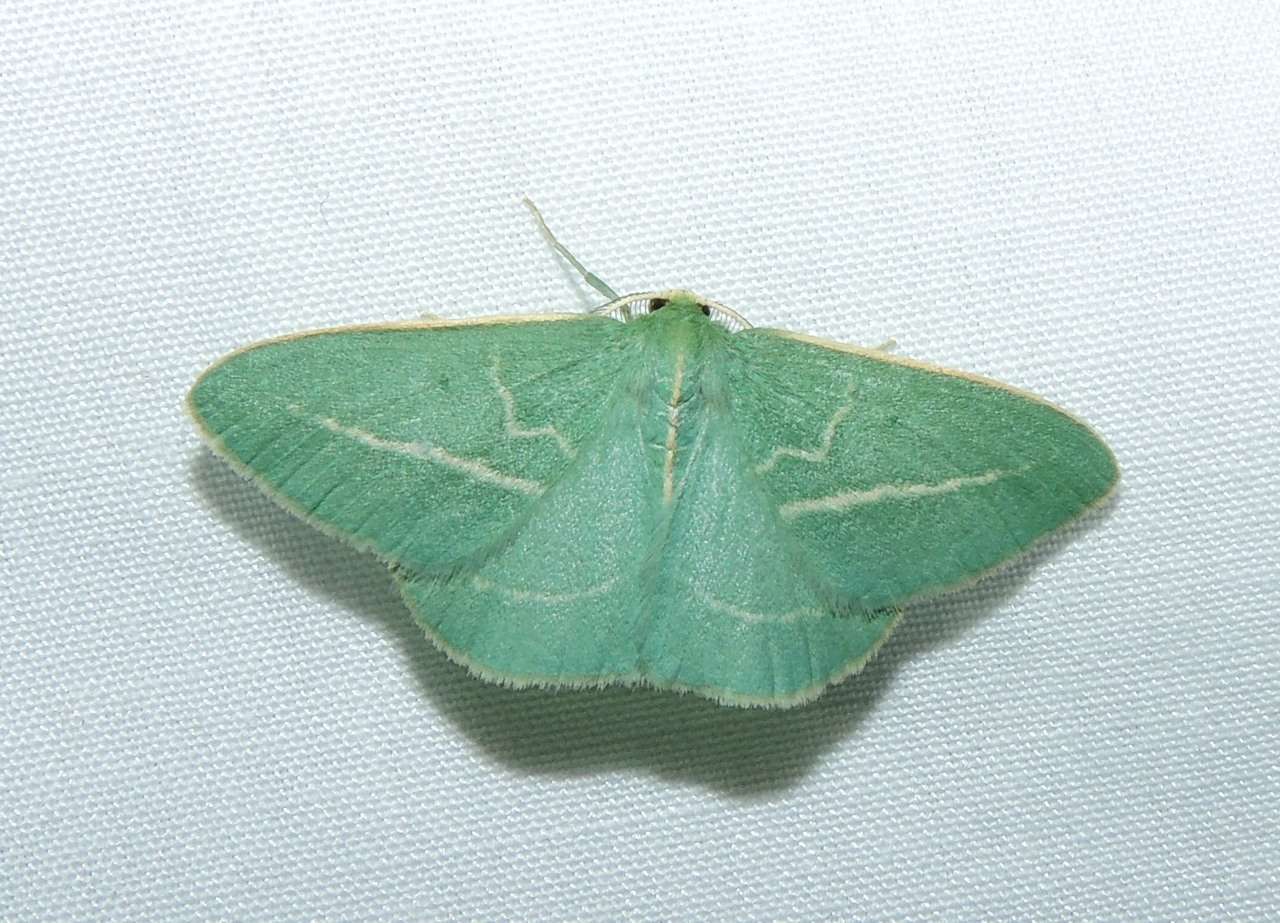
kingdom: Animalia
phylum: Arthropoda
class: Insecta
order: Lepidoptera
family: Geometridae
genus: Chlorocoma
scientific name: Chlorocoma stereota
